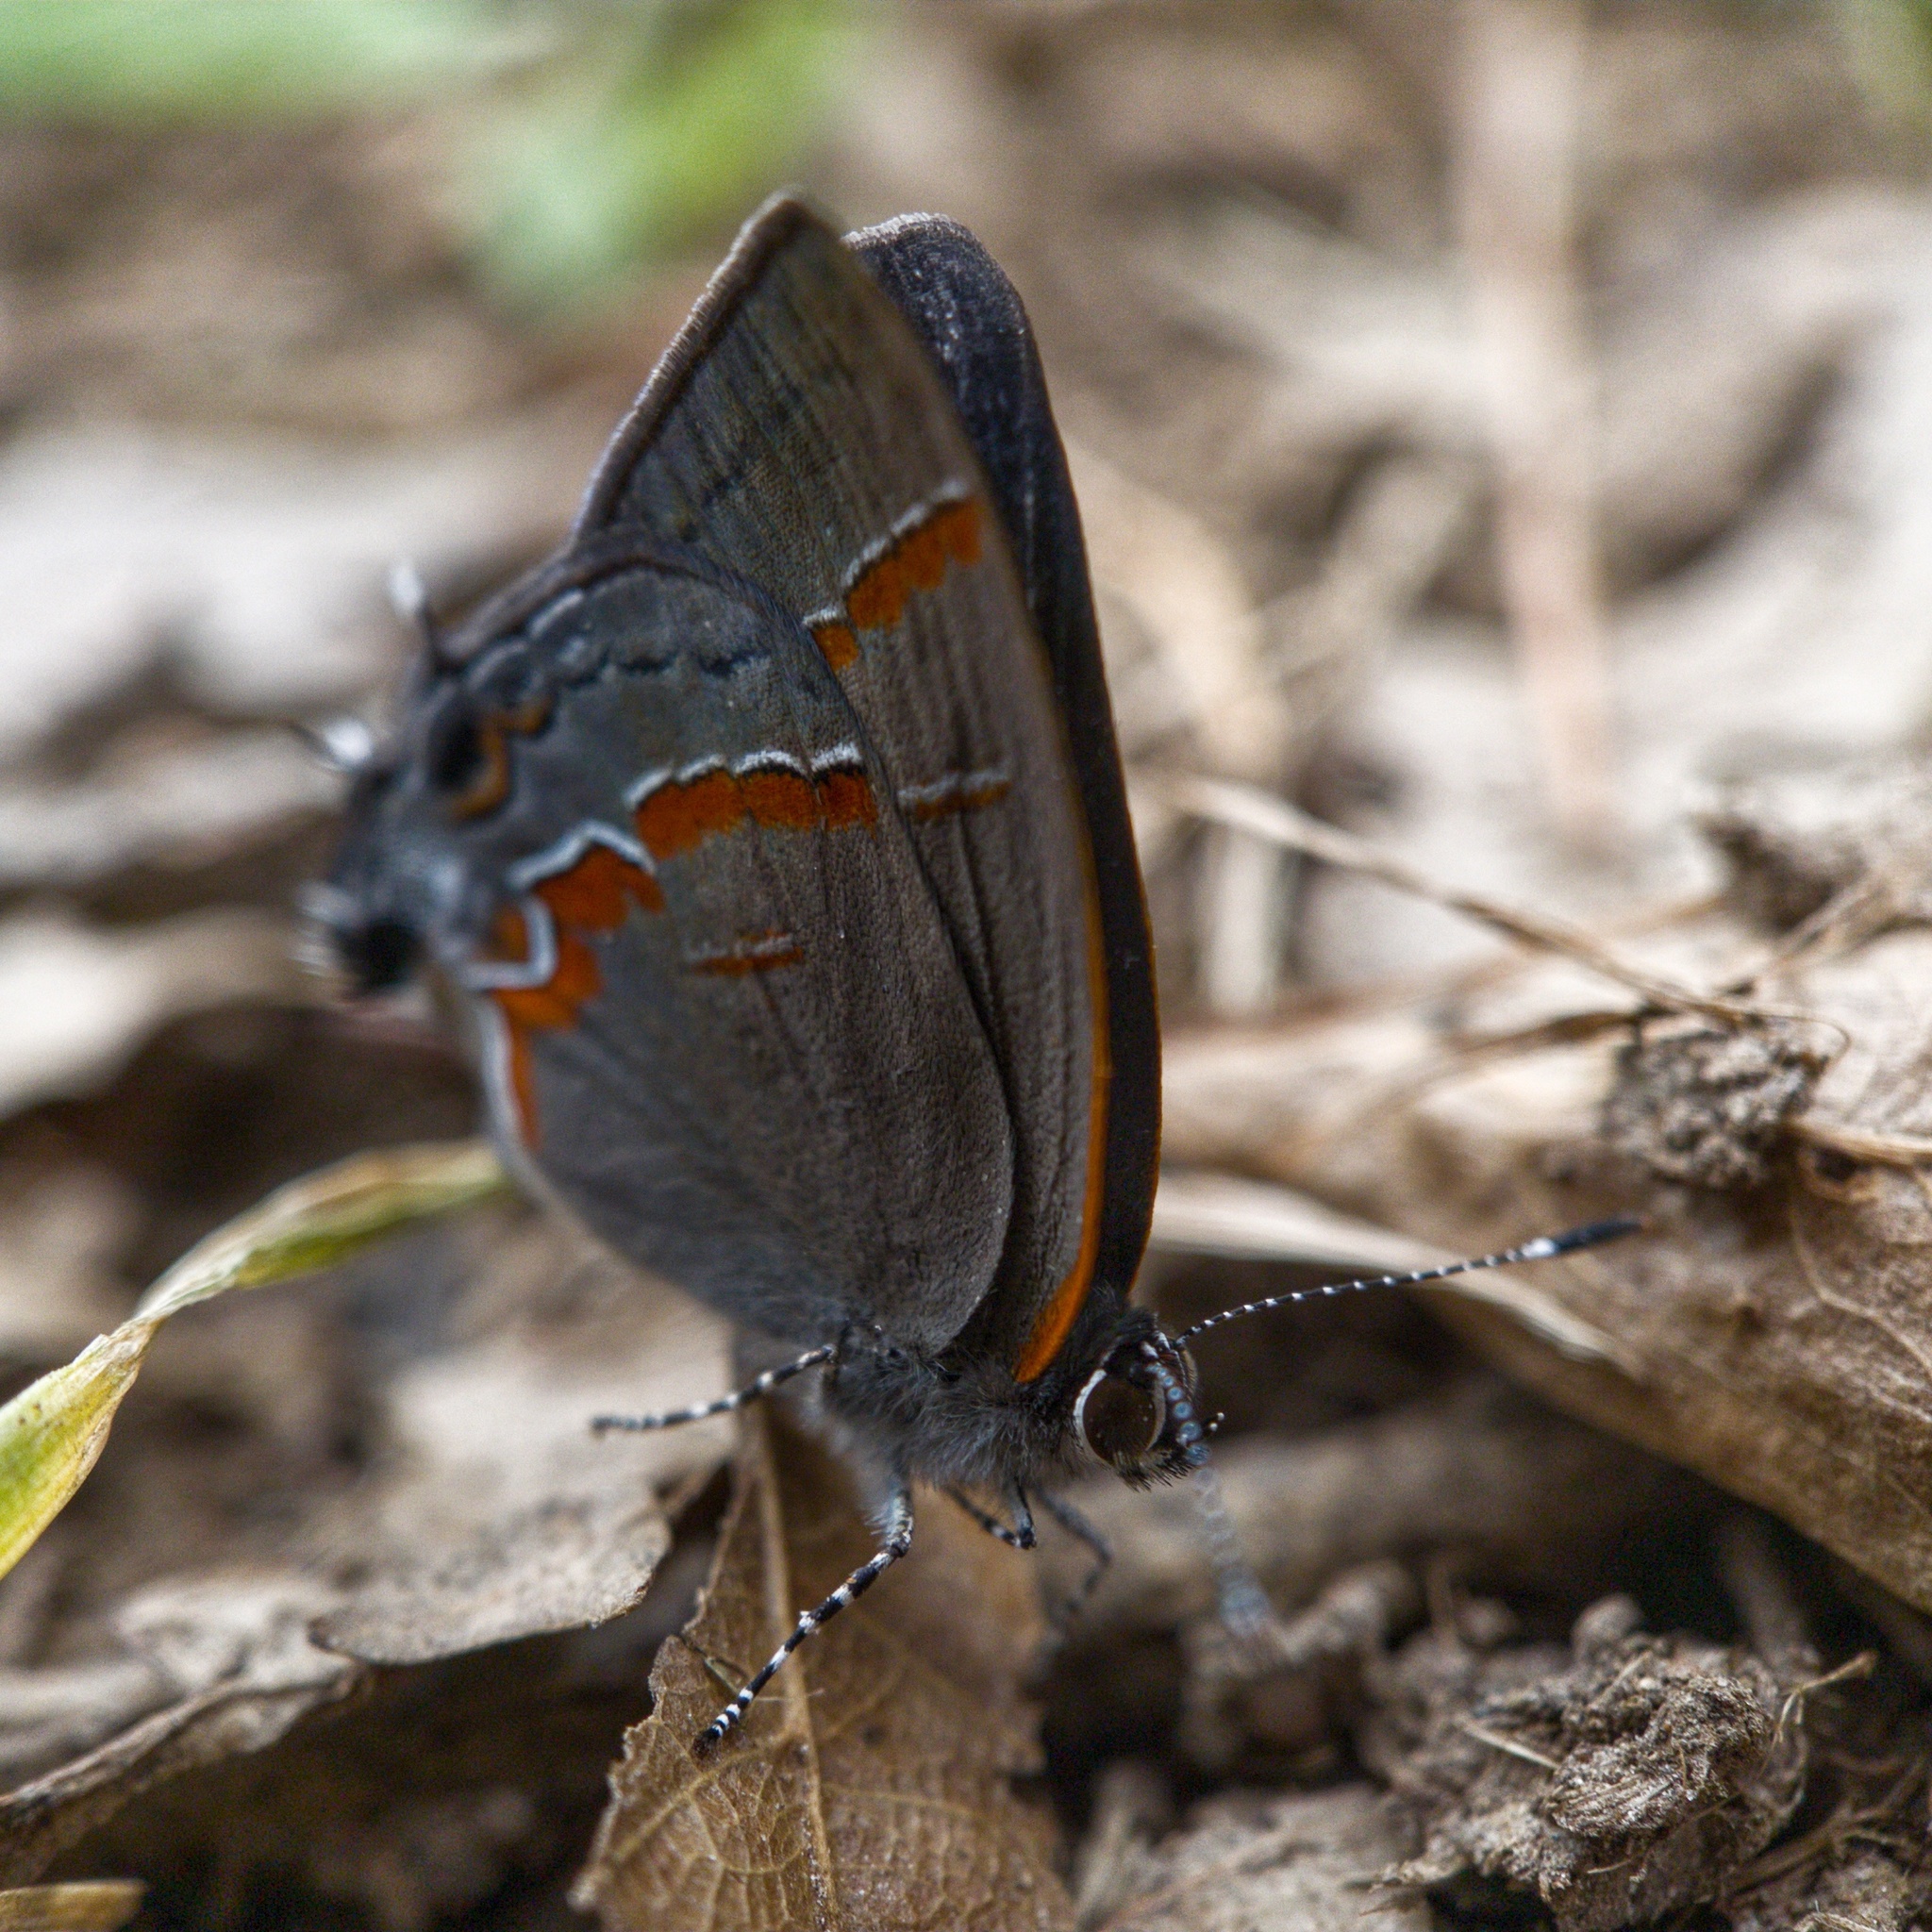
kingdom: Animalia
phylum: Arthropoda
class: Insecta
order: Lepidoptera
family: Lycaenidae
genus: Calycopis
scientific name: Calycopis cecrops
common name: Red-banded hairstreak
